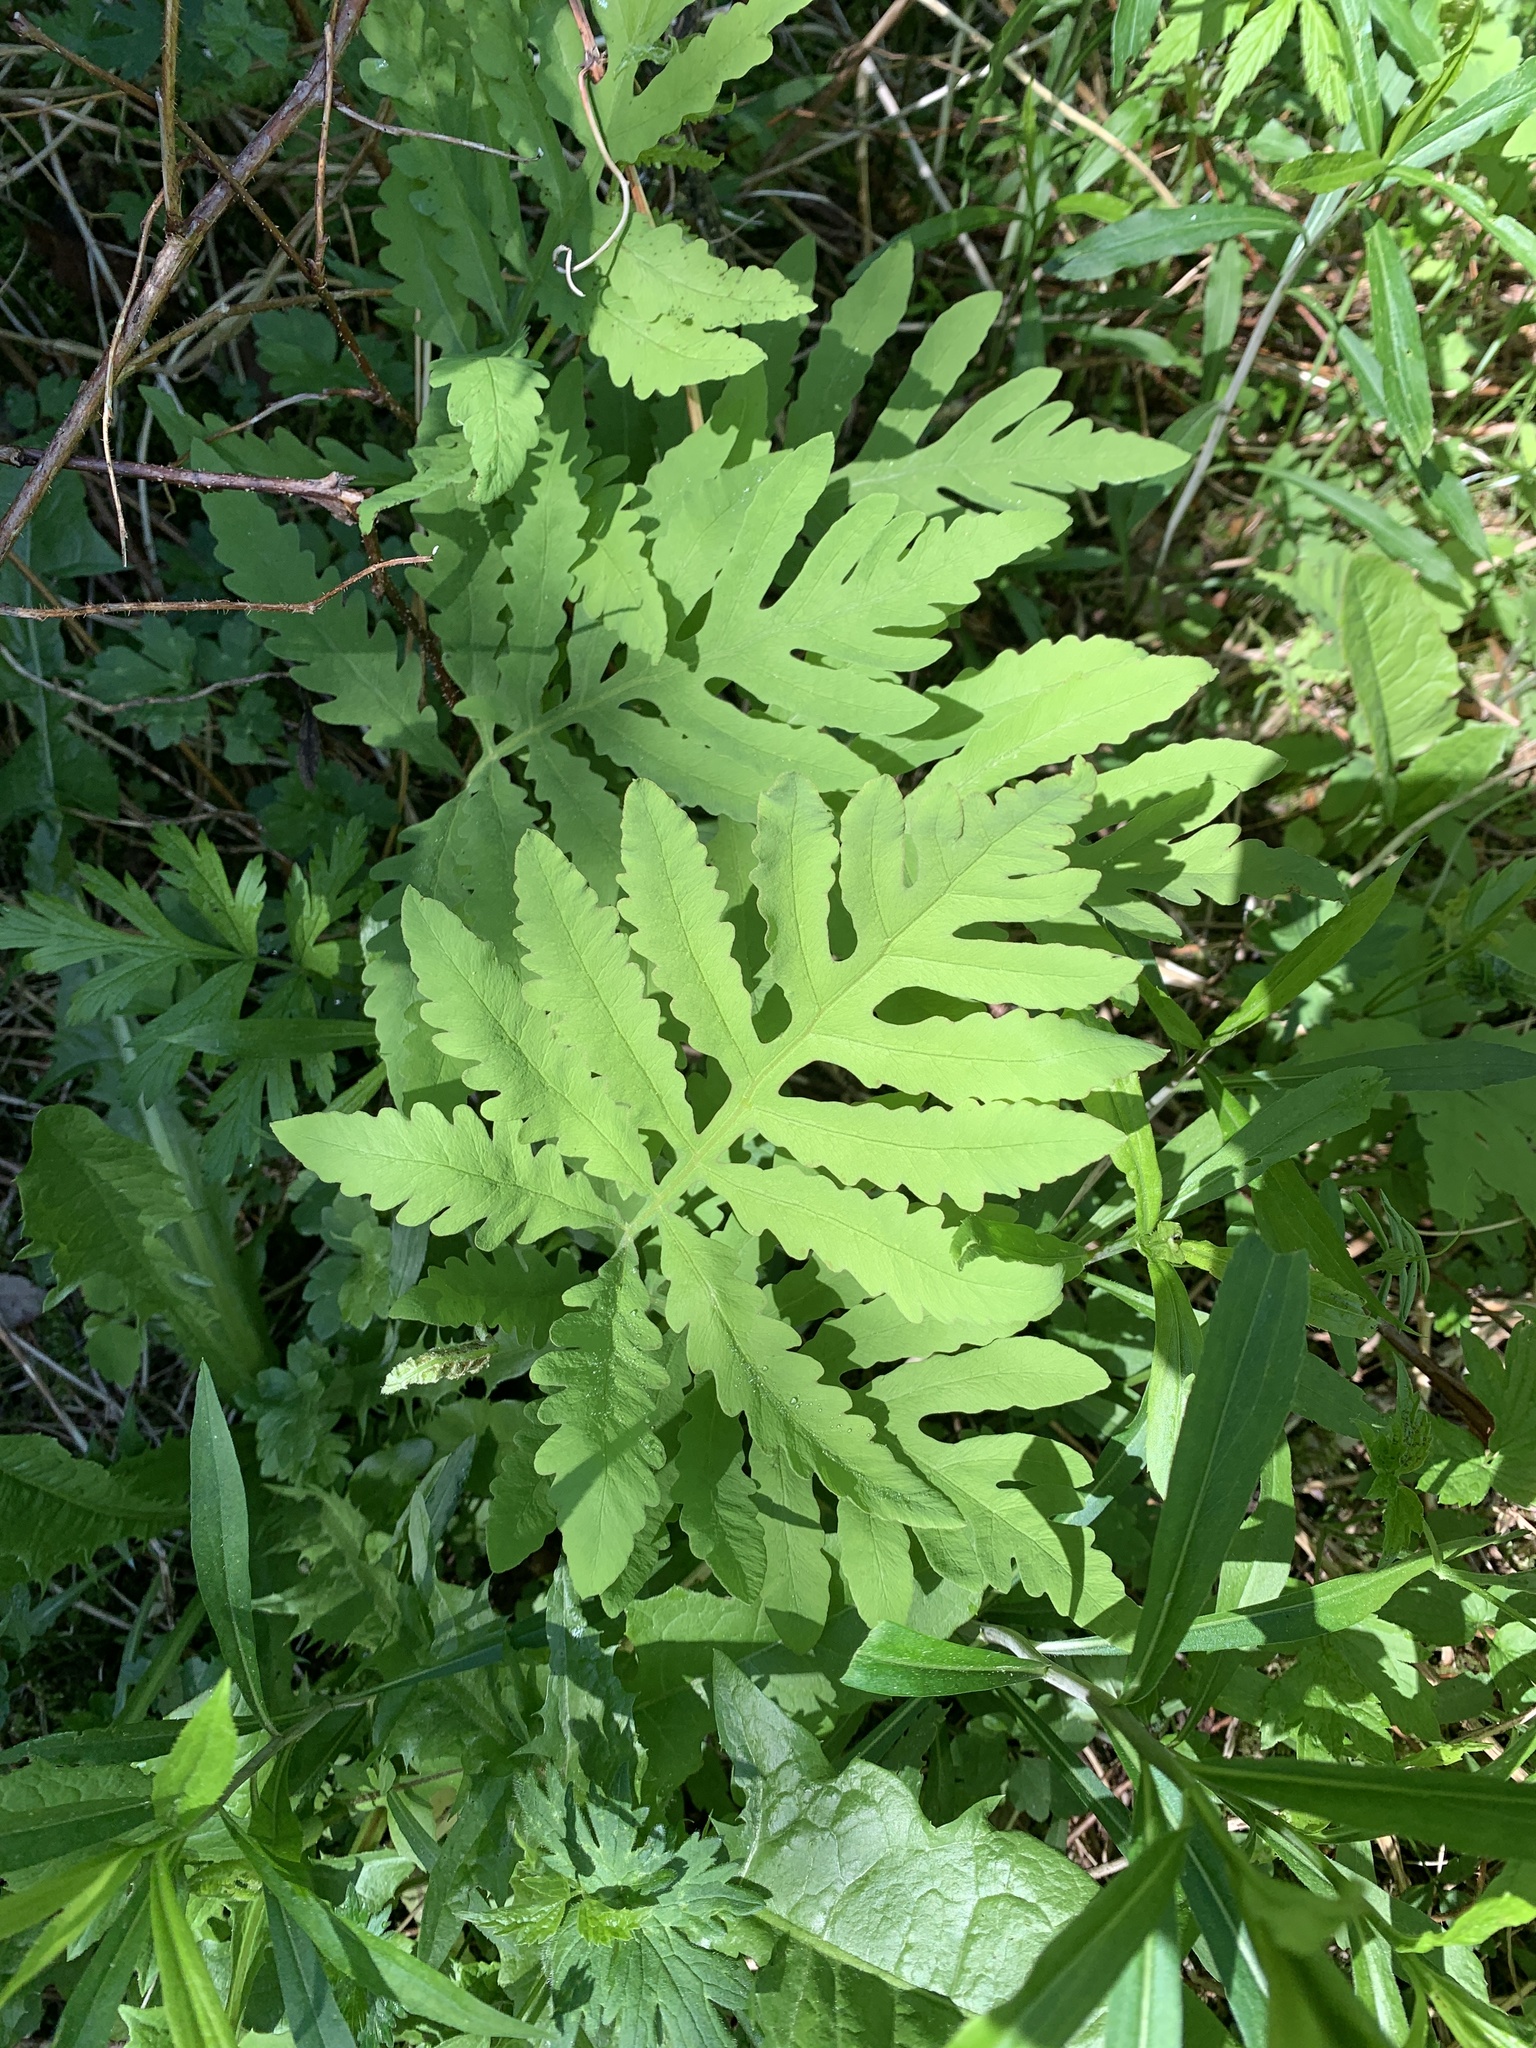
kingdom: Plantae
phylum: Tracheophyta
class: Polypodiopsida
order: Polypodiales
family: Onocleaceae
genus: Onoclea
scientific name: Onoclea sensibilis
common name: Sensitive fern
